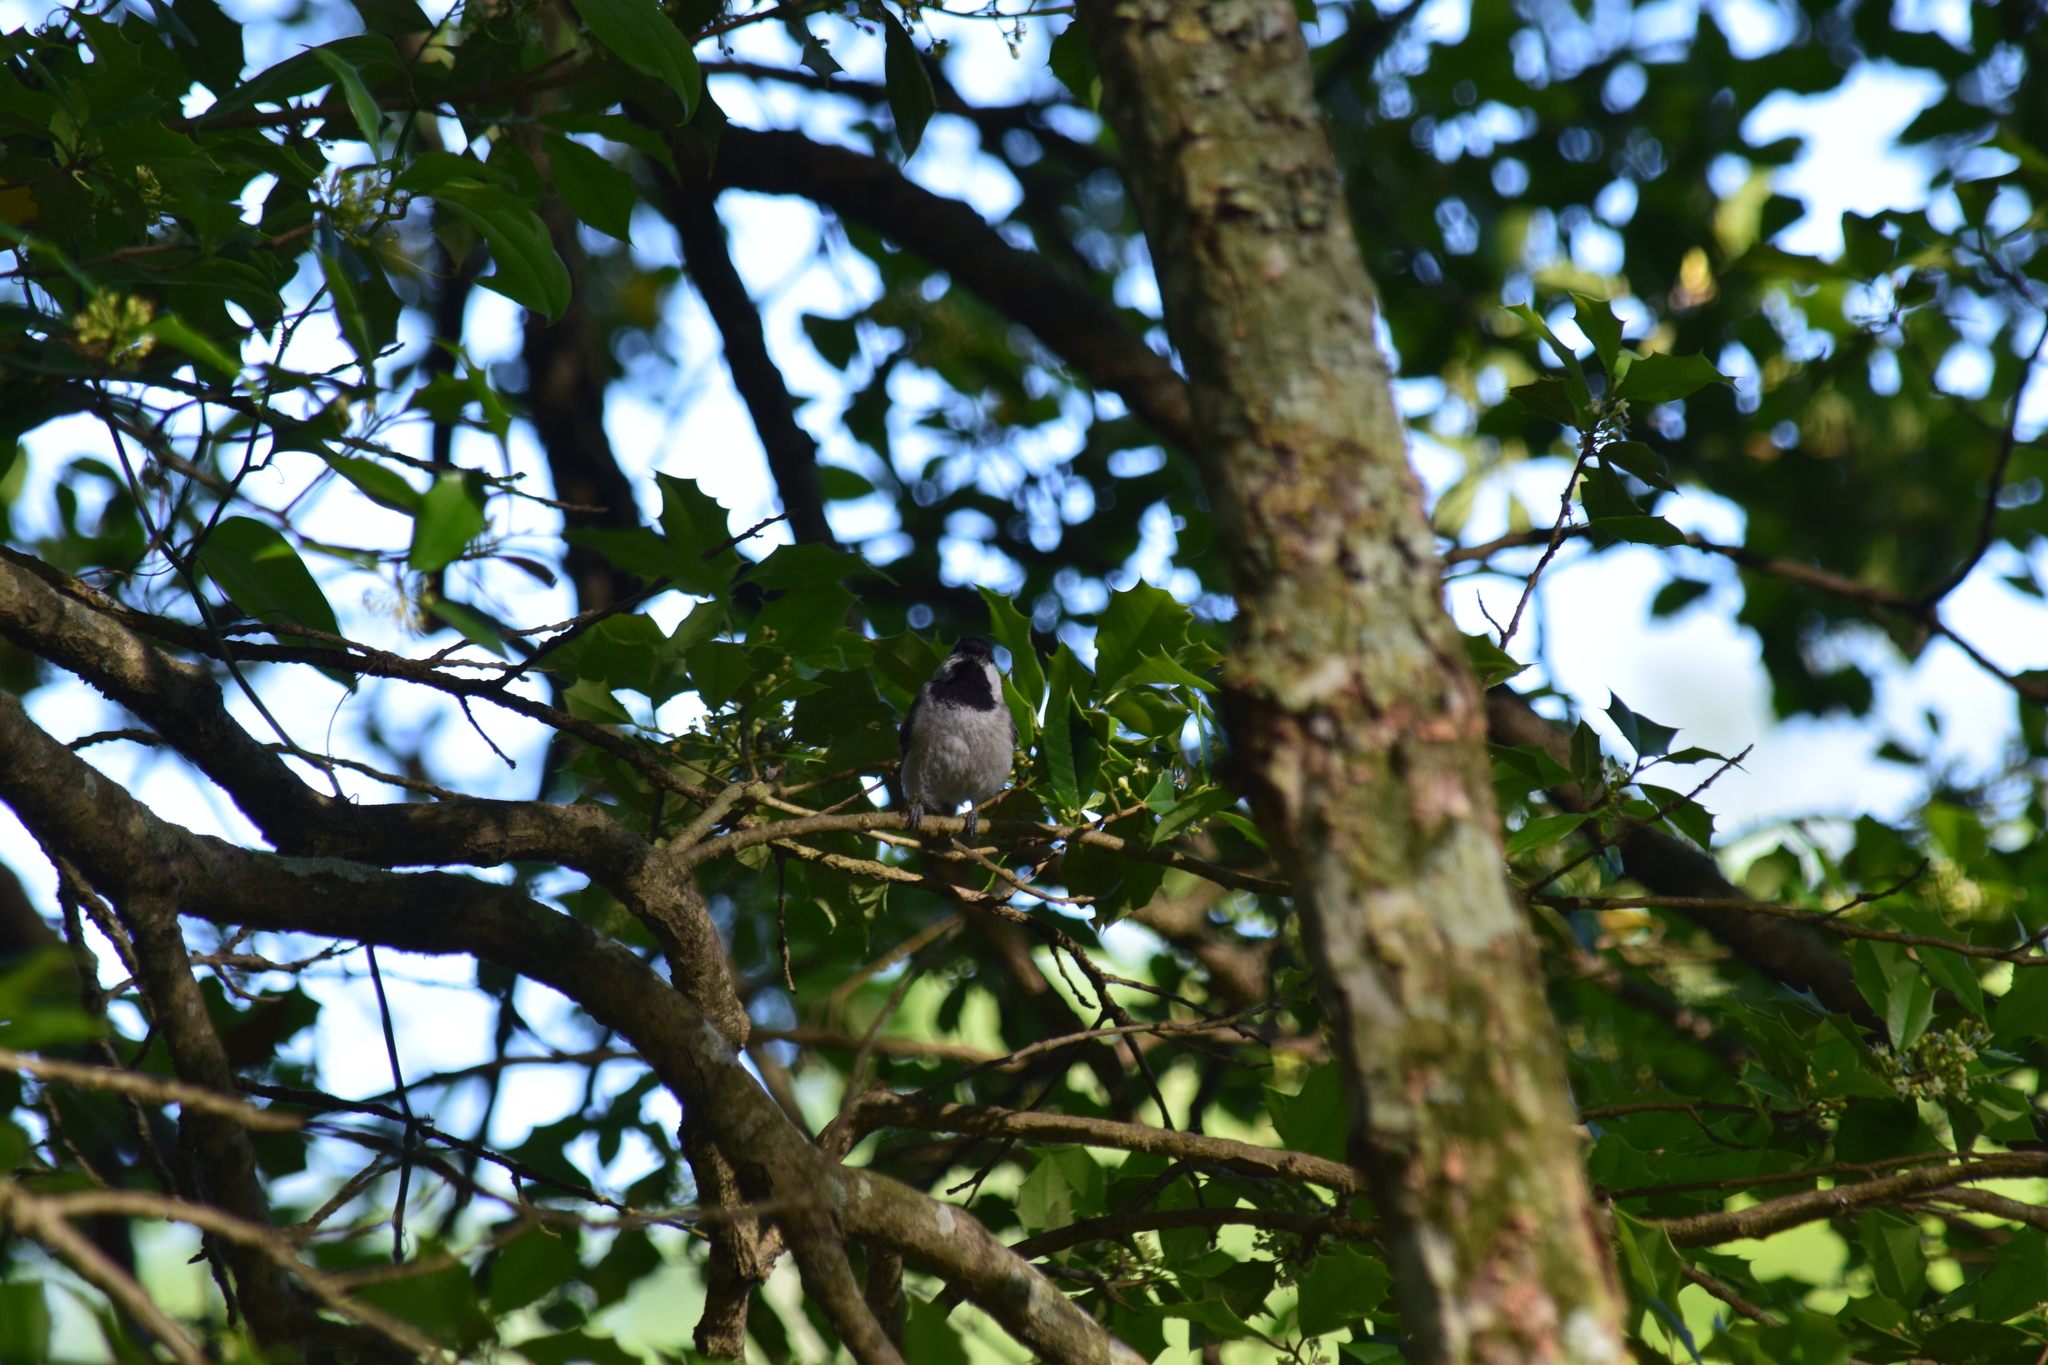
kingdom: Animalia
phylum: Chordata
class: Aves
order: Passeriformes
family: Paridae
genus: Poecile
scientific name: Poecile carolinensis
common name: Carolina chickadee
